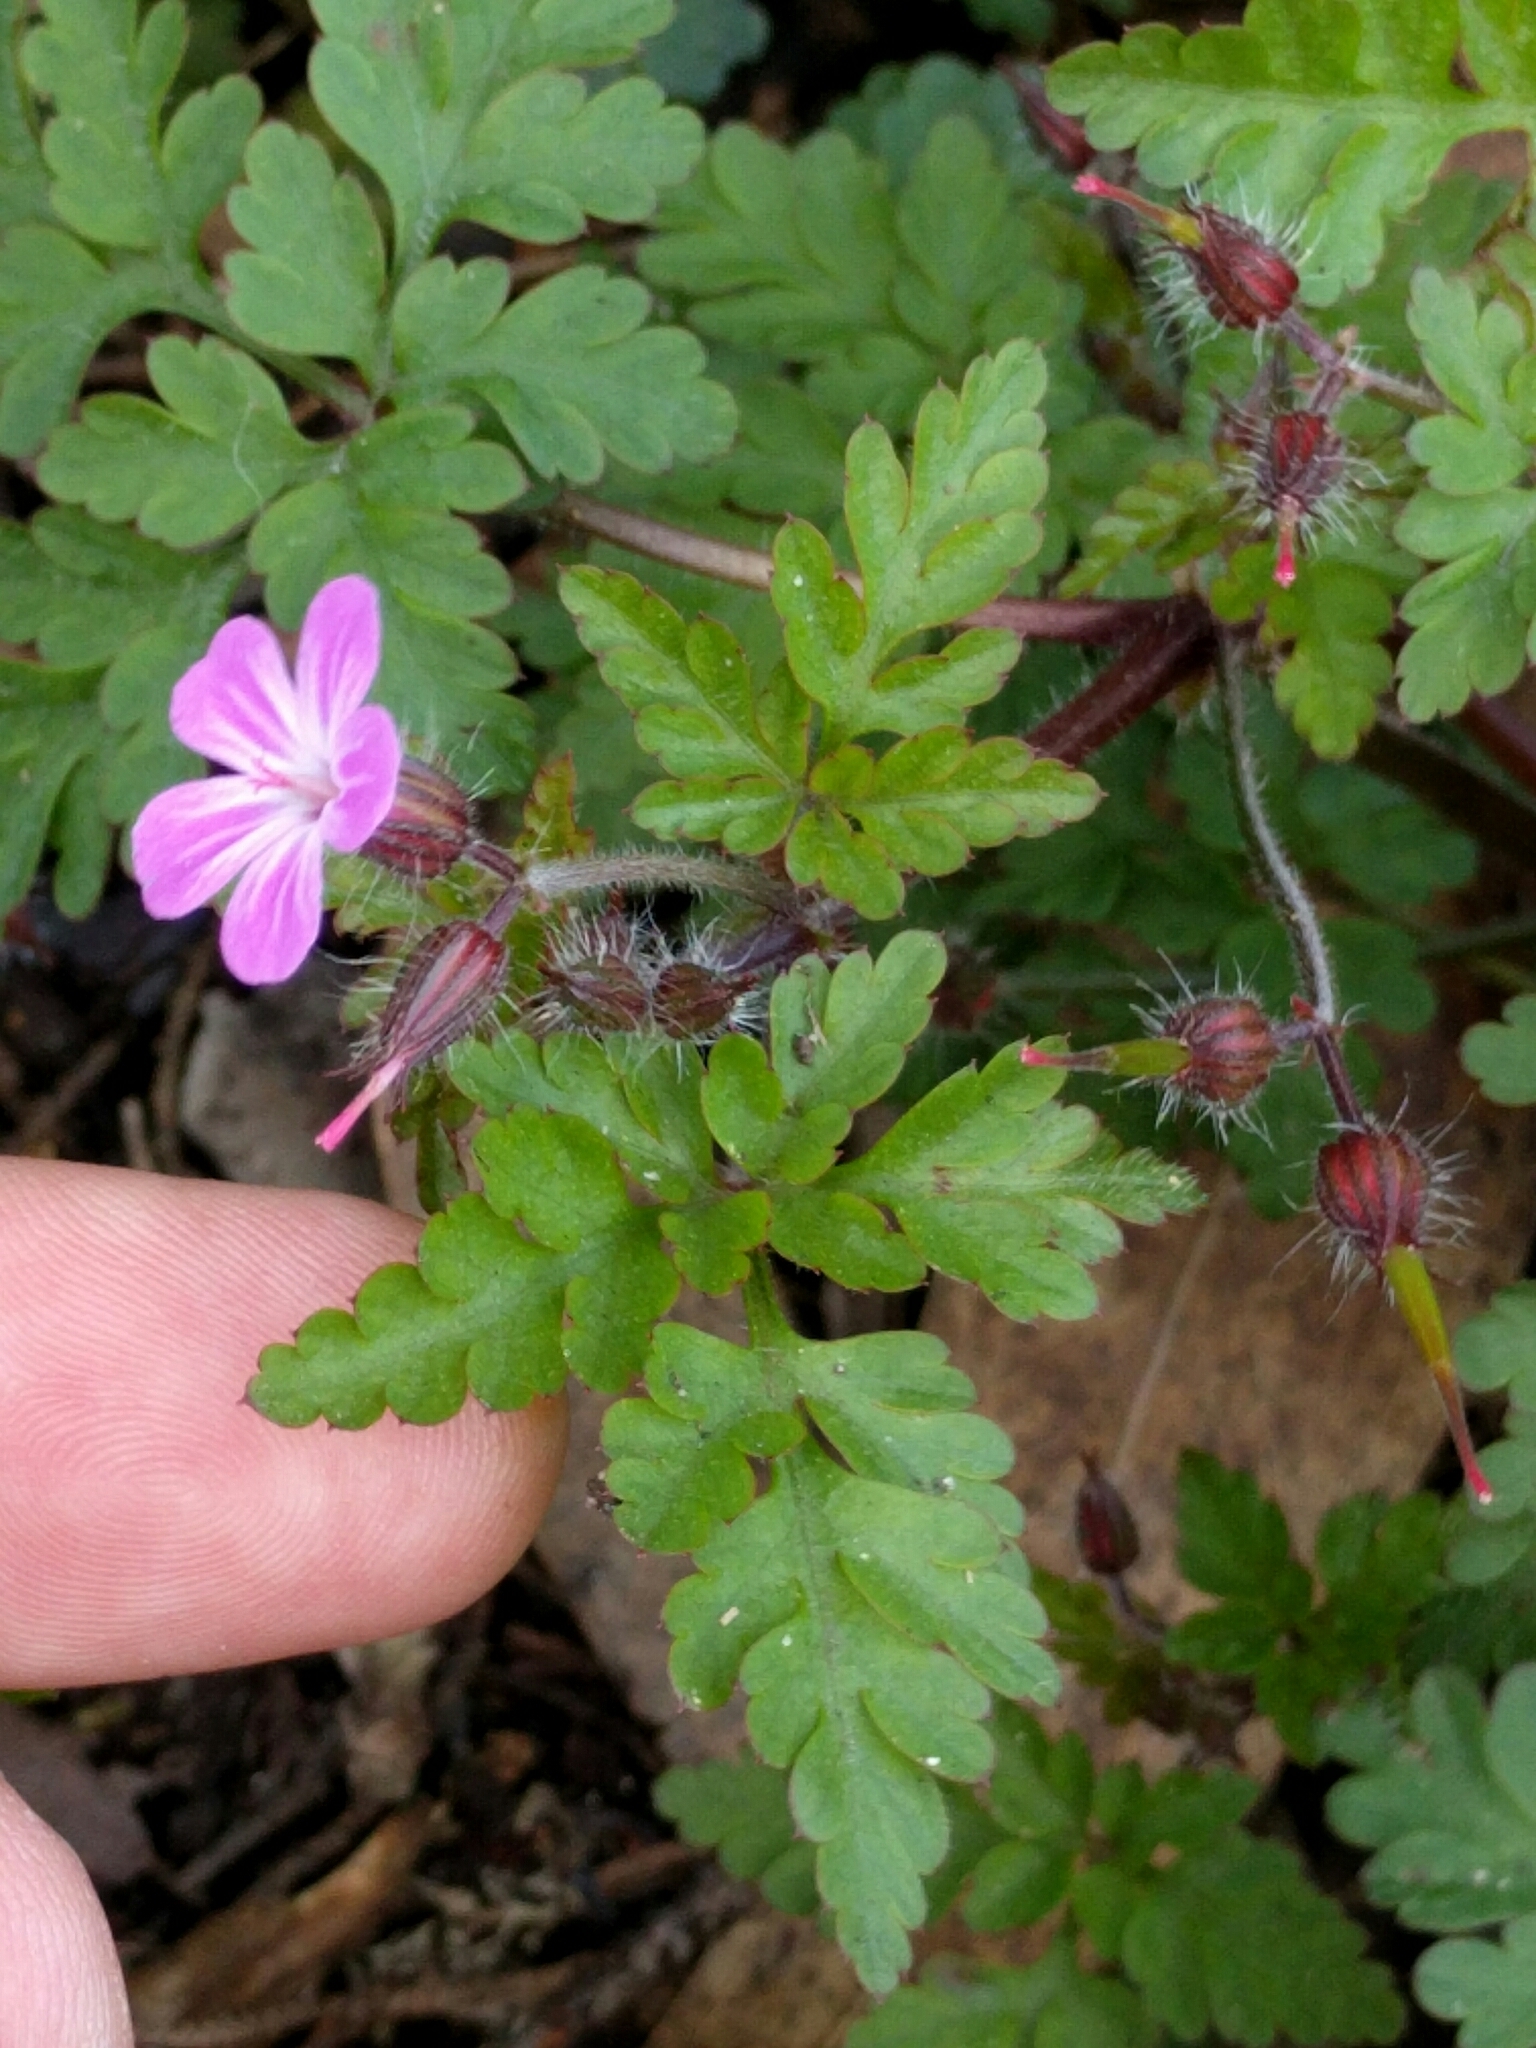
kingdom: Plantae
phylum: Tracheophyta
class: Magnoliopsida
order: Geraniales
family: Geraniaceae
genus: Geranium
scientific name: Geranium robertianum
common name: Herb-robert
